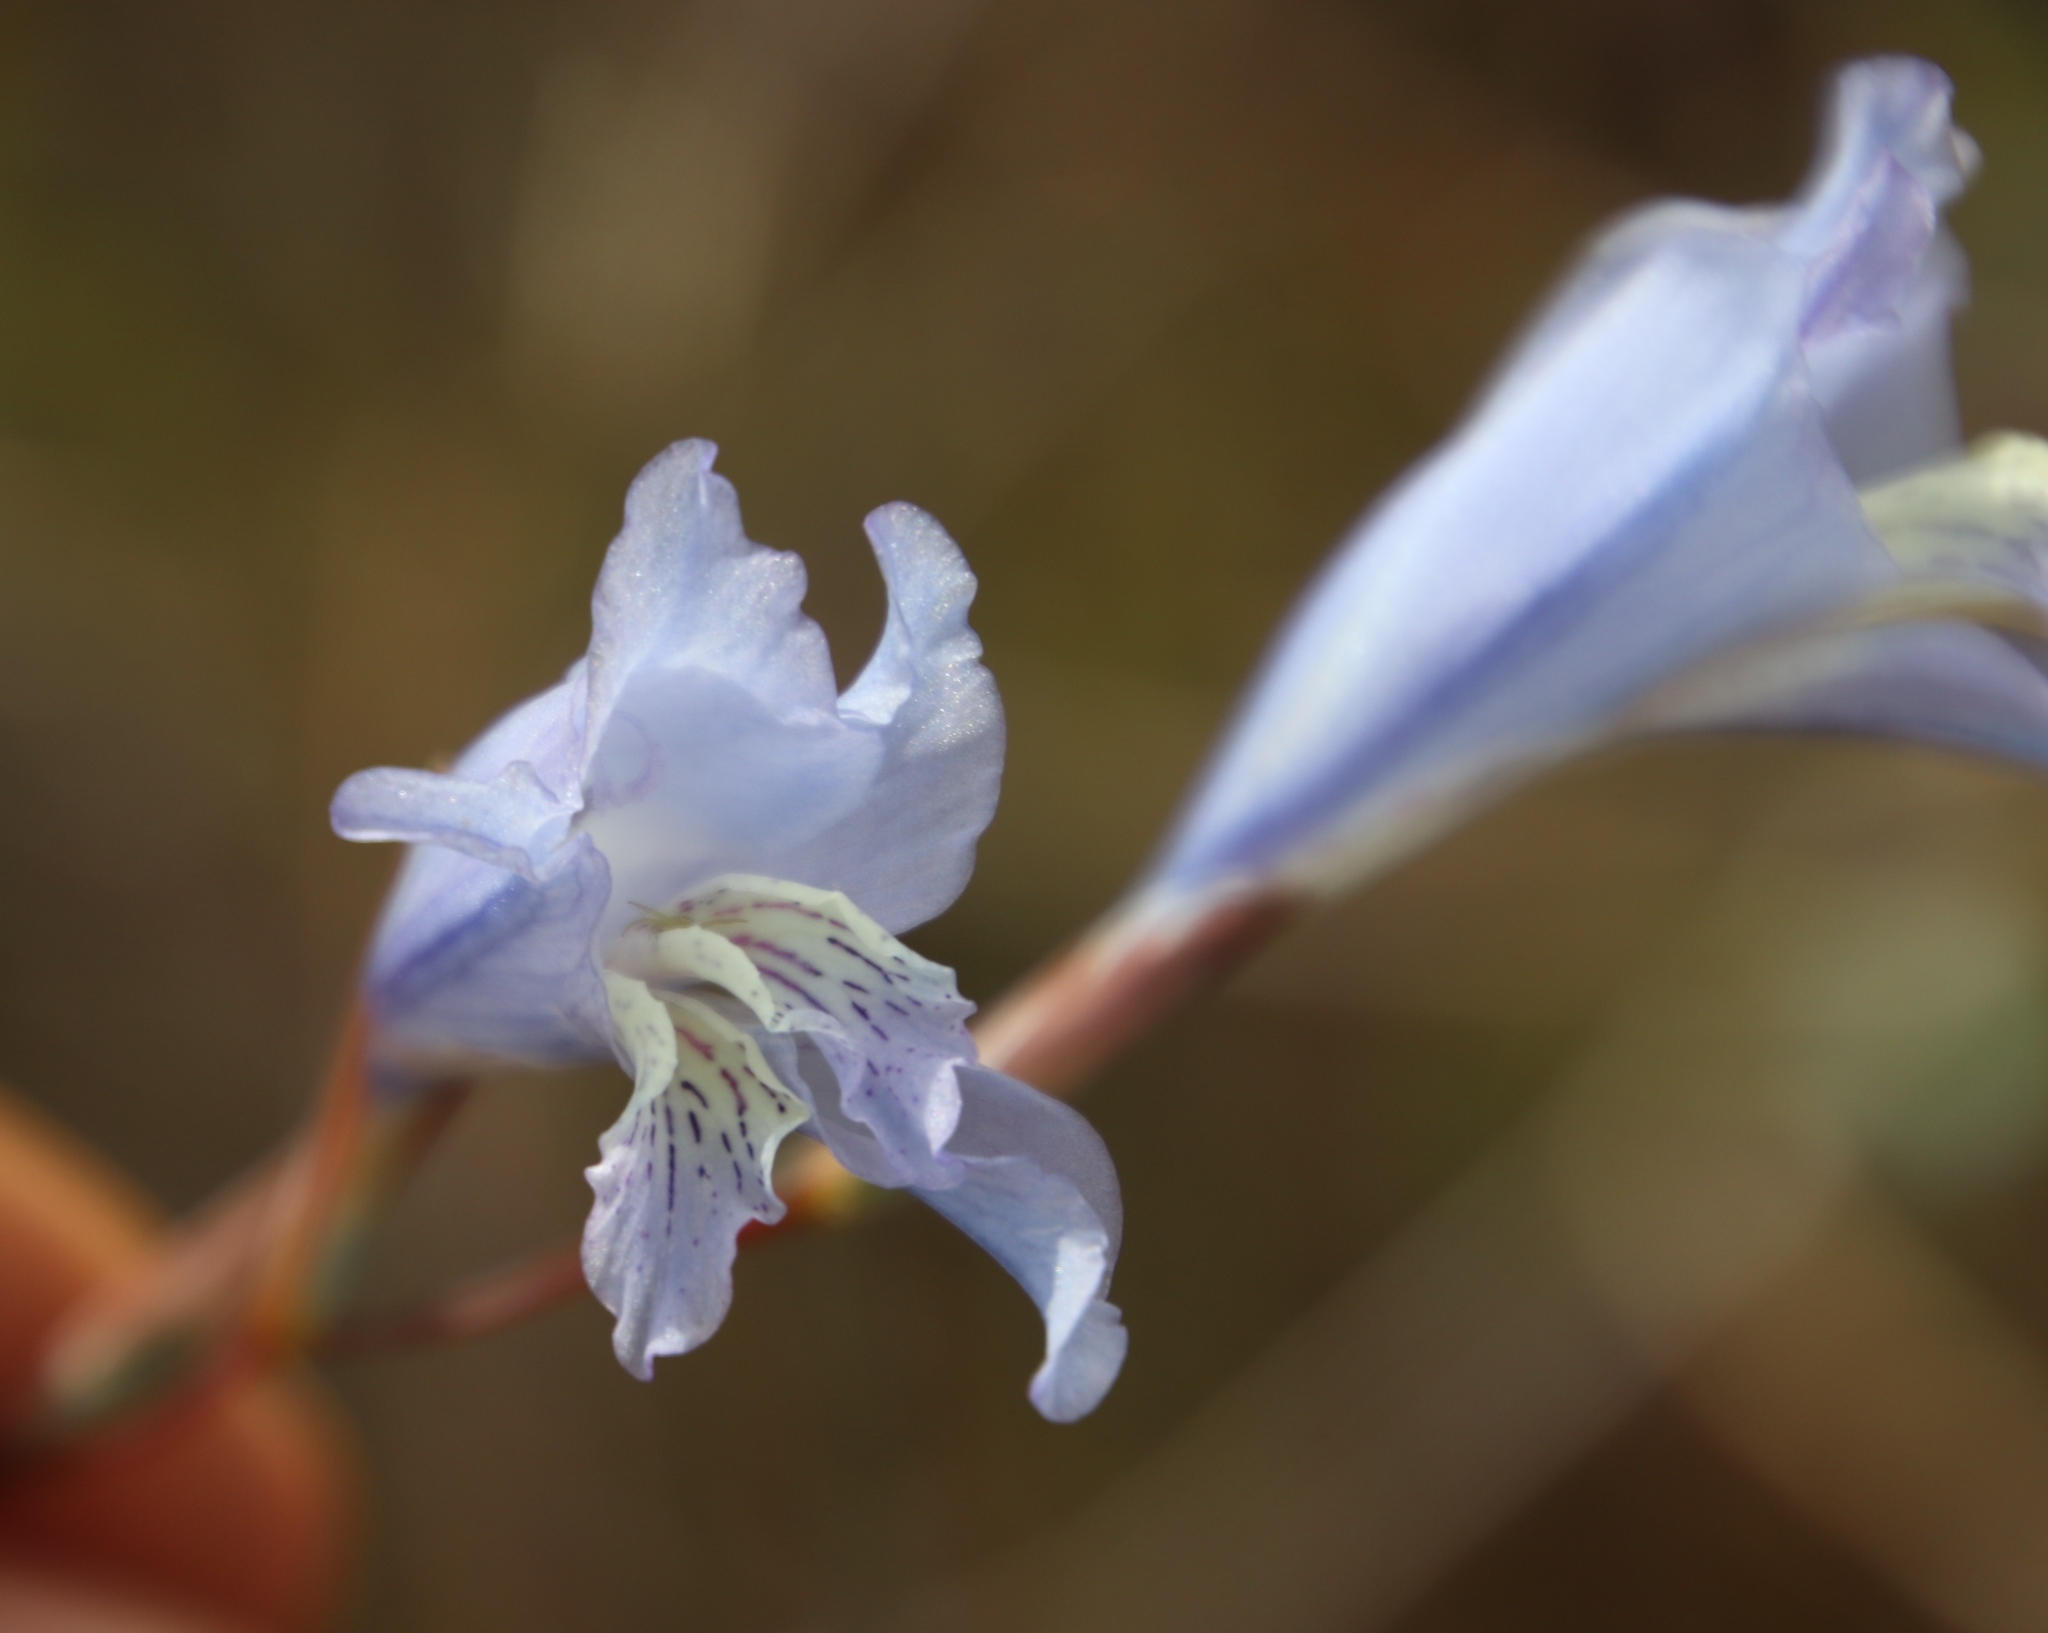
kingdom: Plantae
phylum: Tracheophyta
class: Liliopsida
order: Asparagales
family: Iridaceae
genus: Gladiolus
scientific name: Gladiolus gracilis
